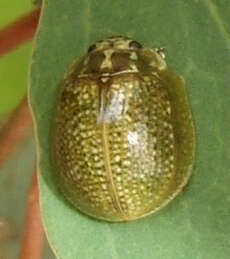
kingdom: Animalia
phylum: Arthropoda
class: Insecta
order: Coleoptera
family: Chrysomelidae
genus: Paropsisterna
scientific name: Paropsisterna cloelia
